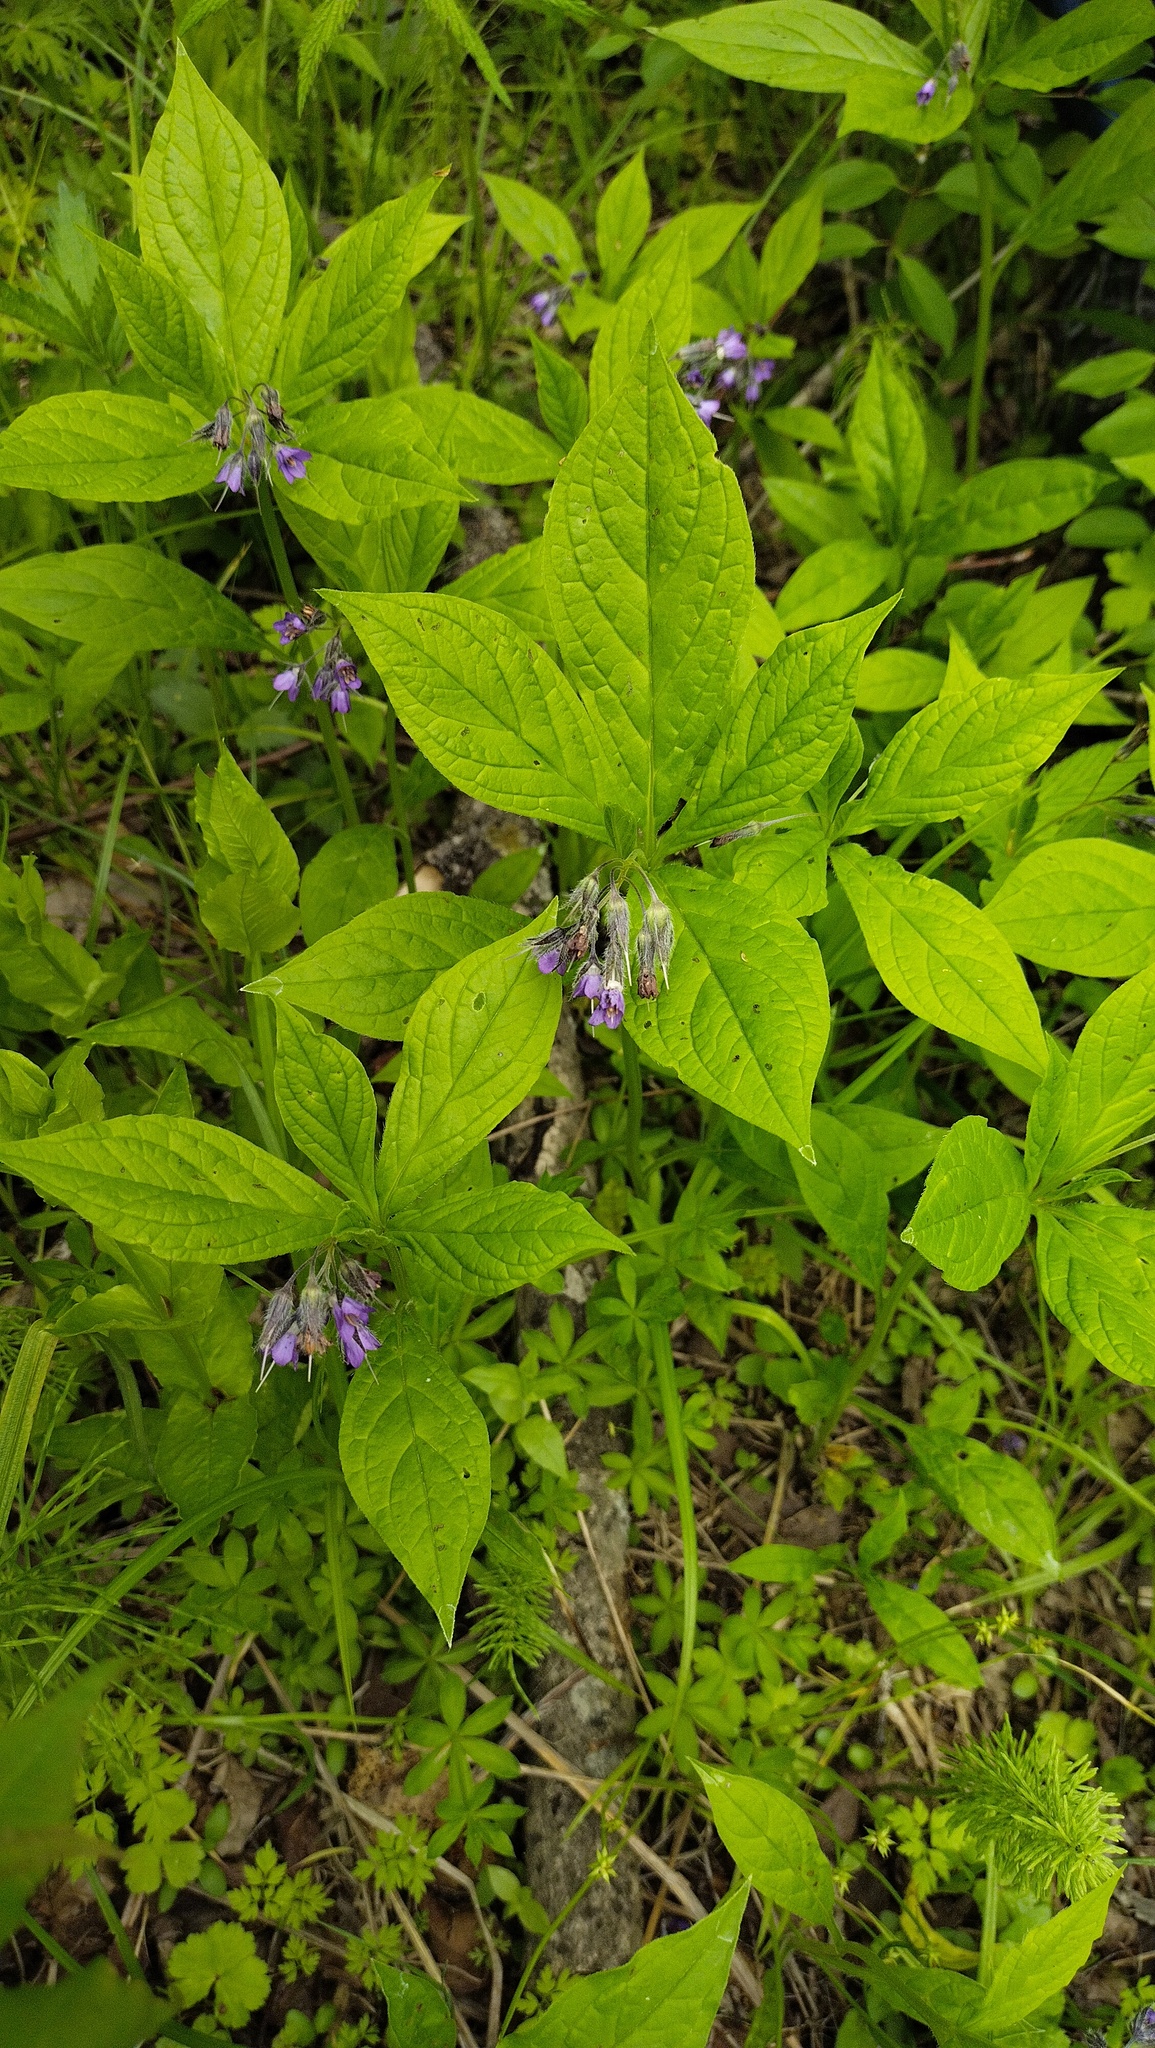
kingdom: Plantae
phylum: Tracheophyta
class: Magnoliopsida
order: Boraginales
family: Boraginaceae
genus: Brachybotrys
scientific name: Brachybotrys paridiformis
